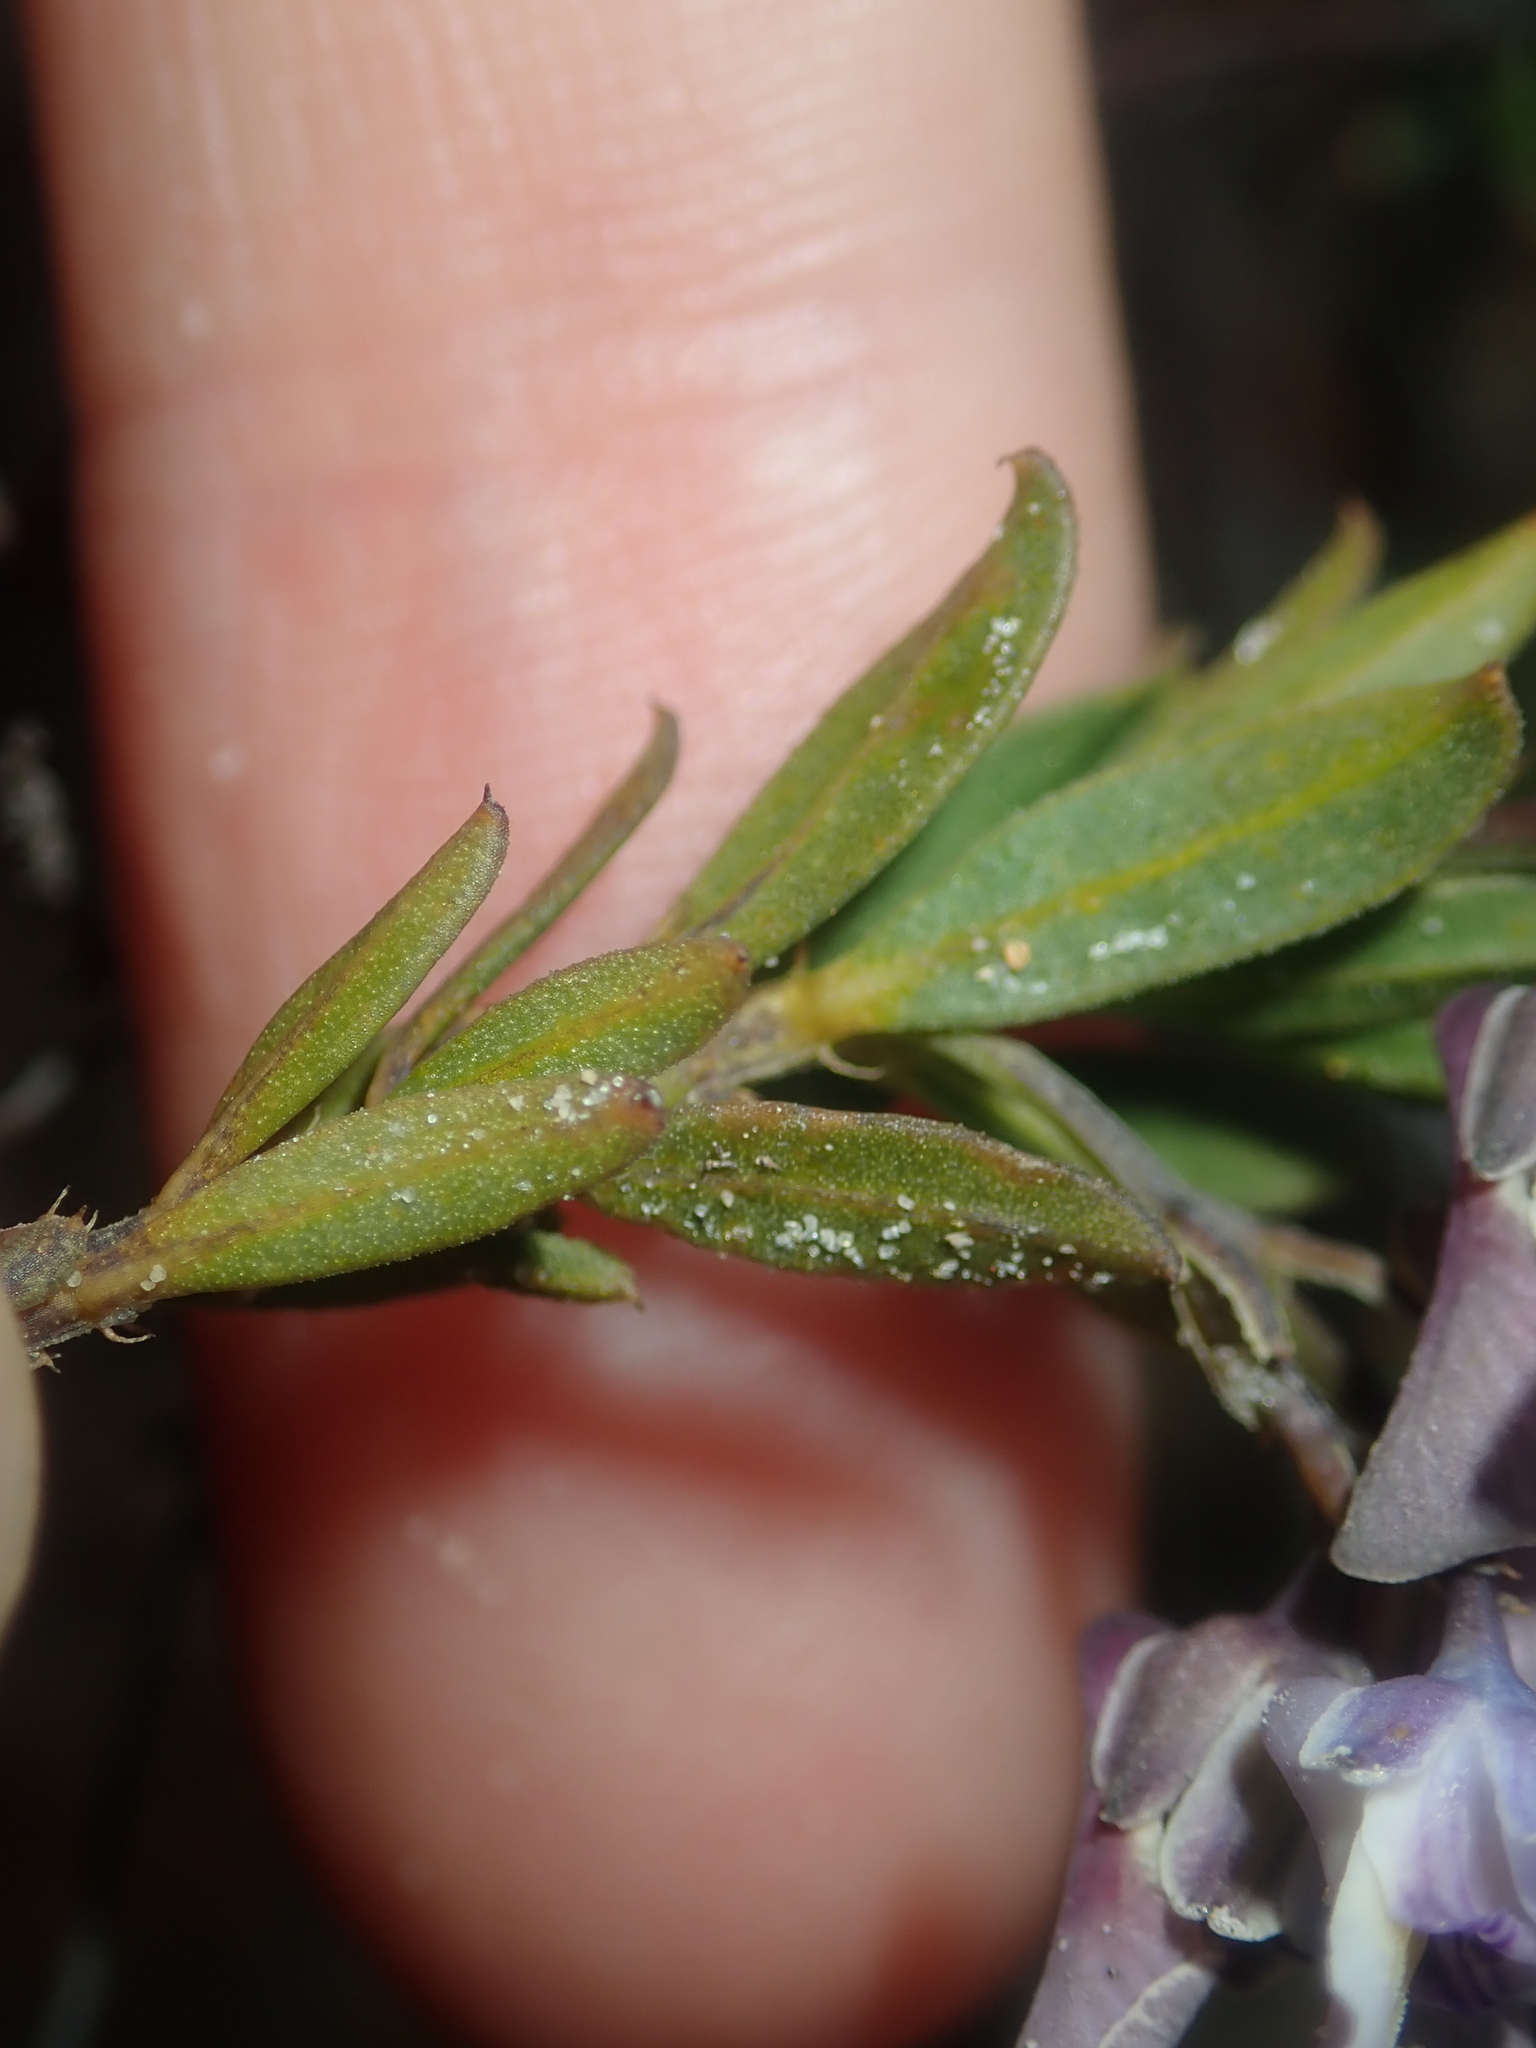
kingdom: Plantae
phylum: Tracheophyta
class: Magnoliopsida
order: Malpighiales
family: Violaceae
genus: Pigea
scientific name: Pigea floribunda
